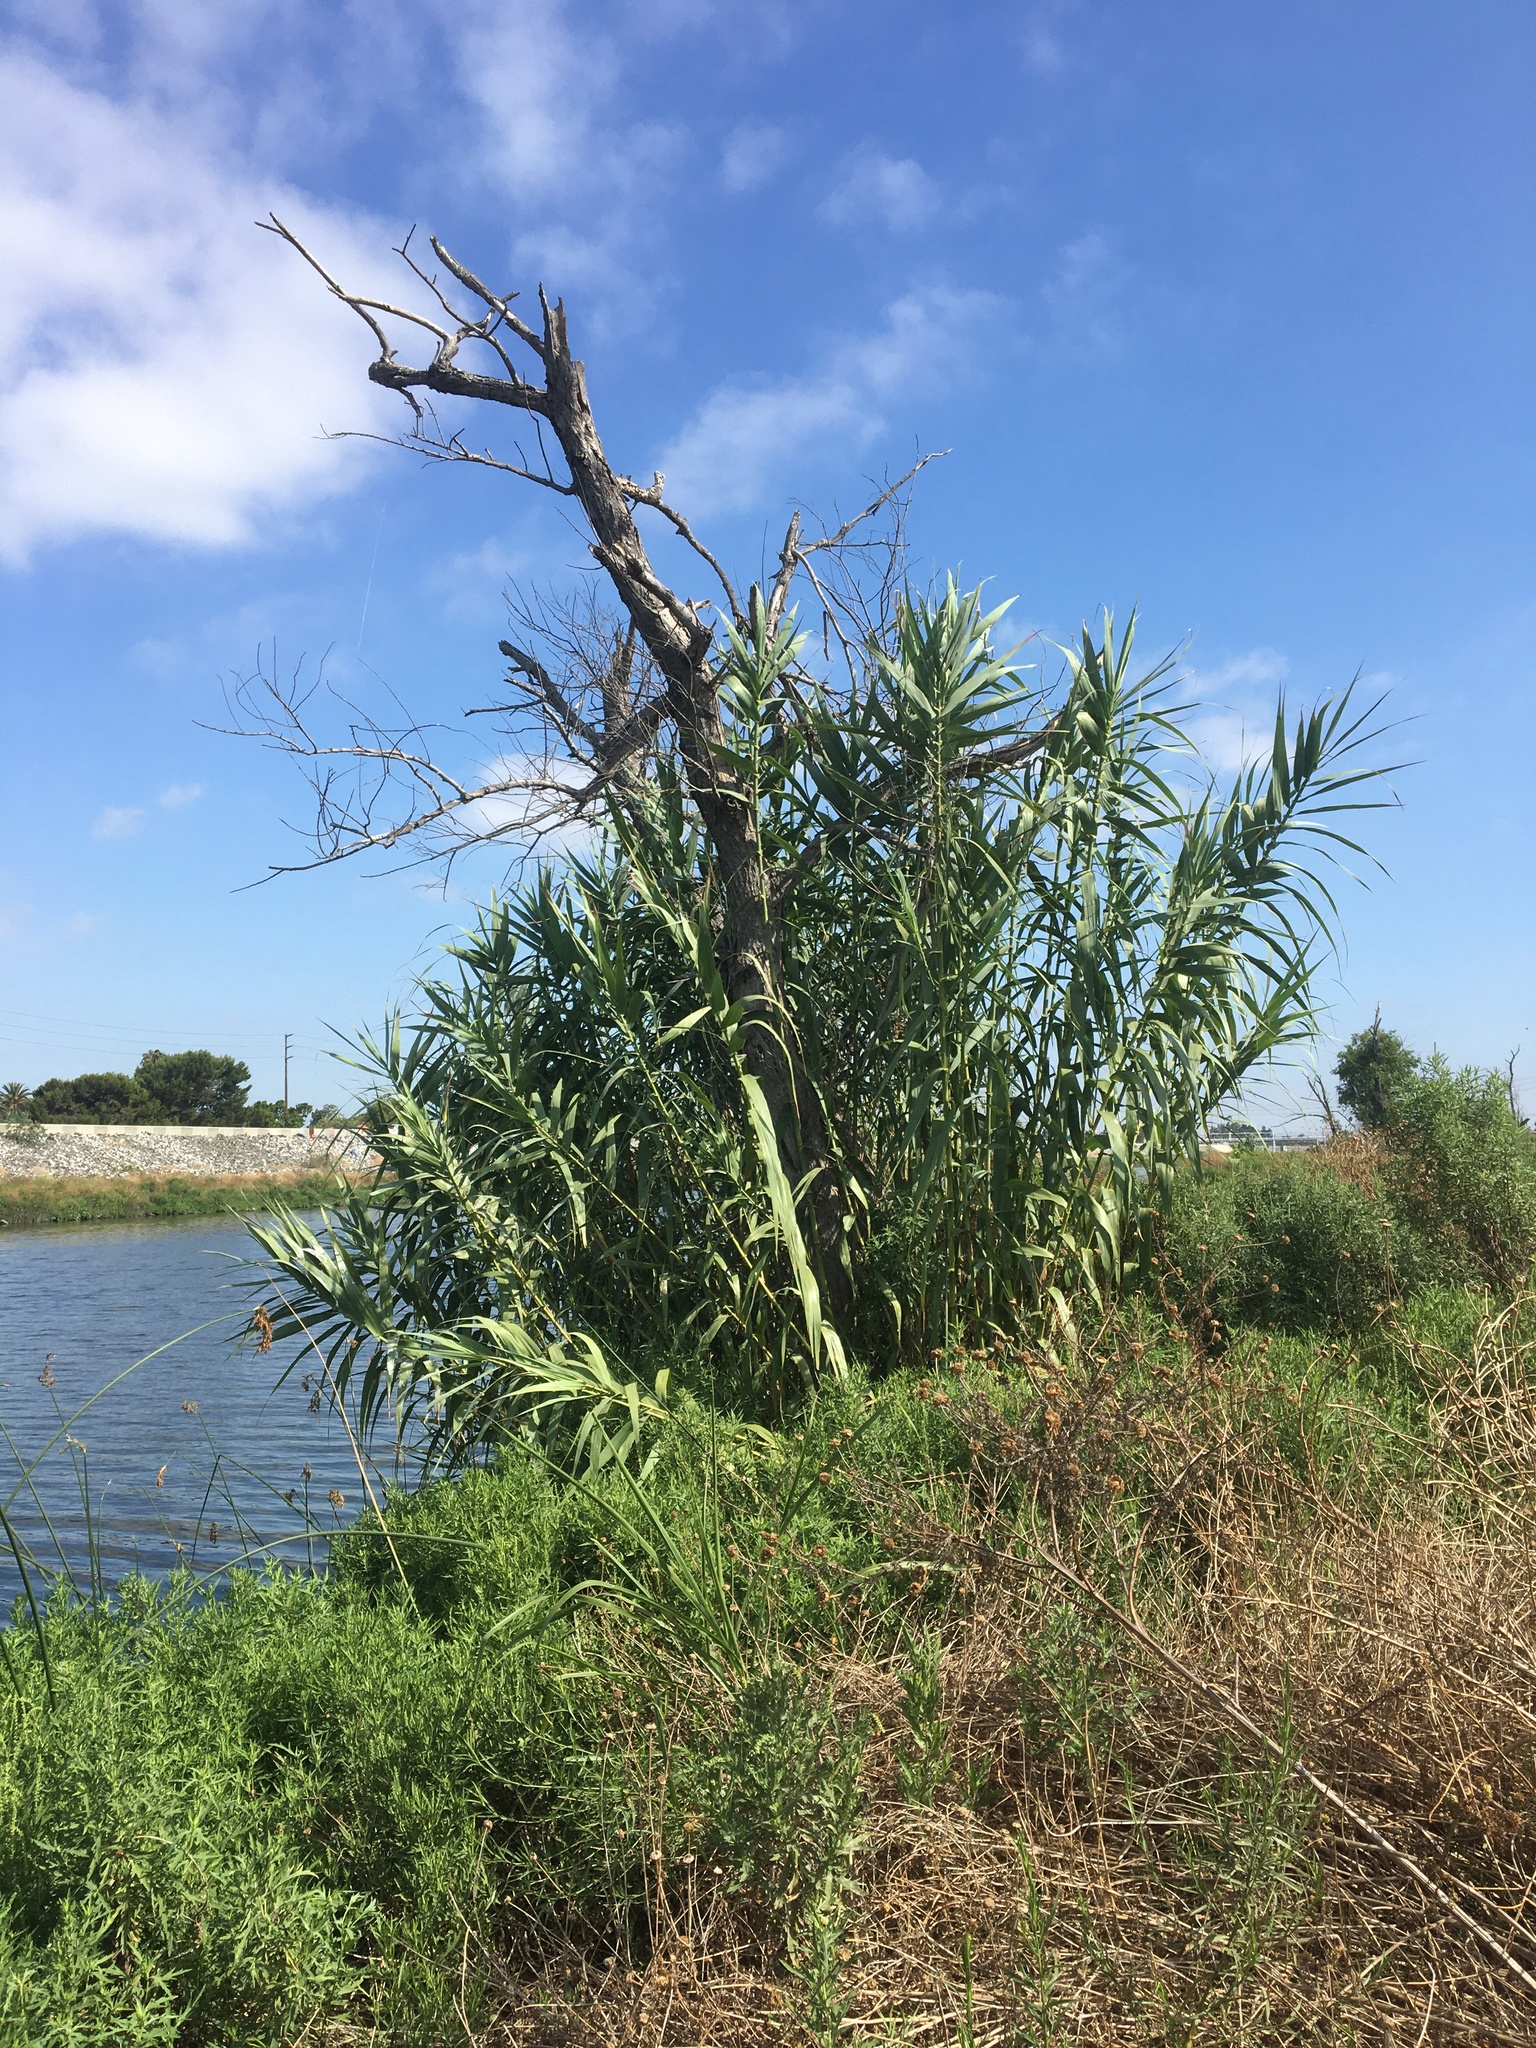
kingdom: Plantae
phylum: Tracheophyta
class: Liliopsida
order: Poales
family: Poaceae
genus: Arundo
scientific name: Arundo donax
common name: Giant reed
